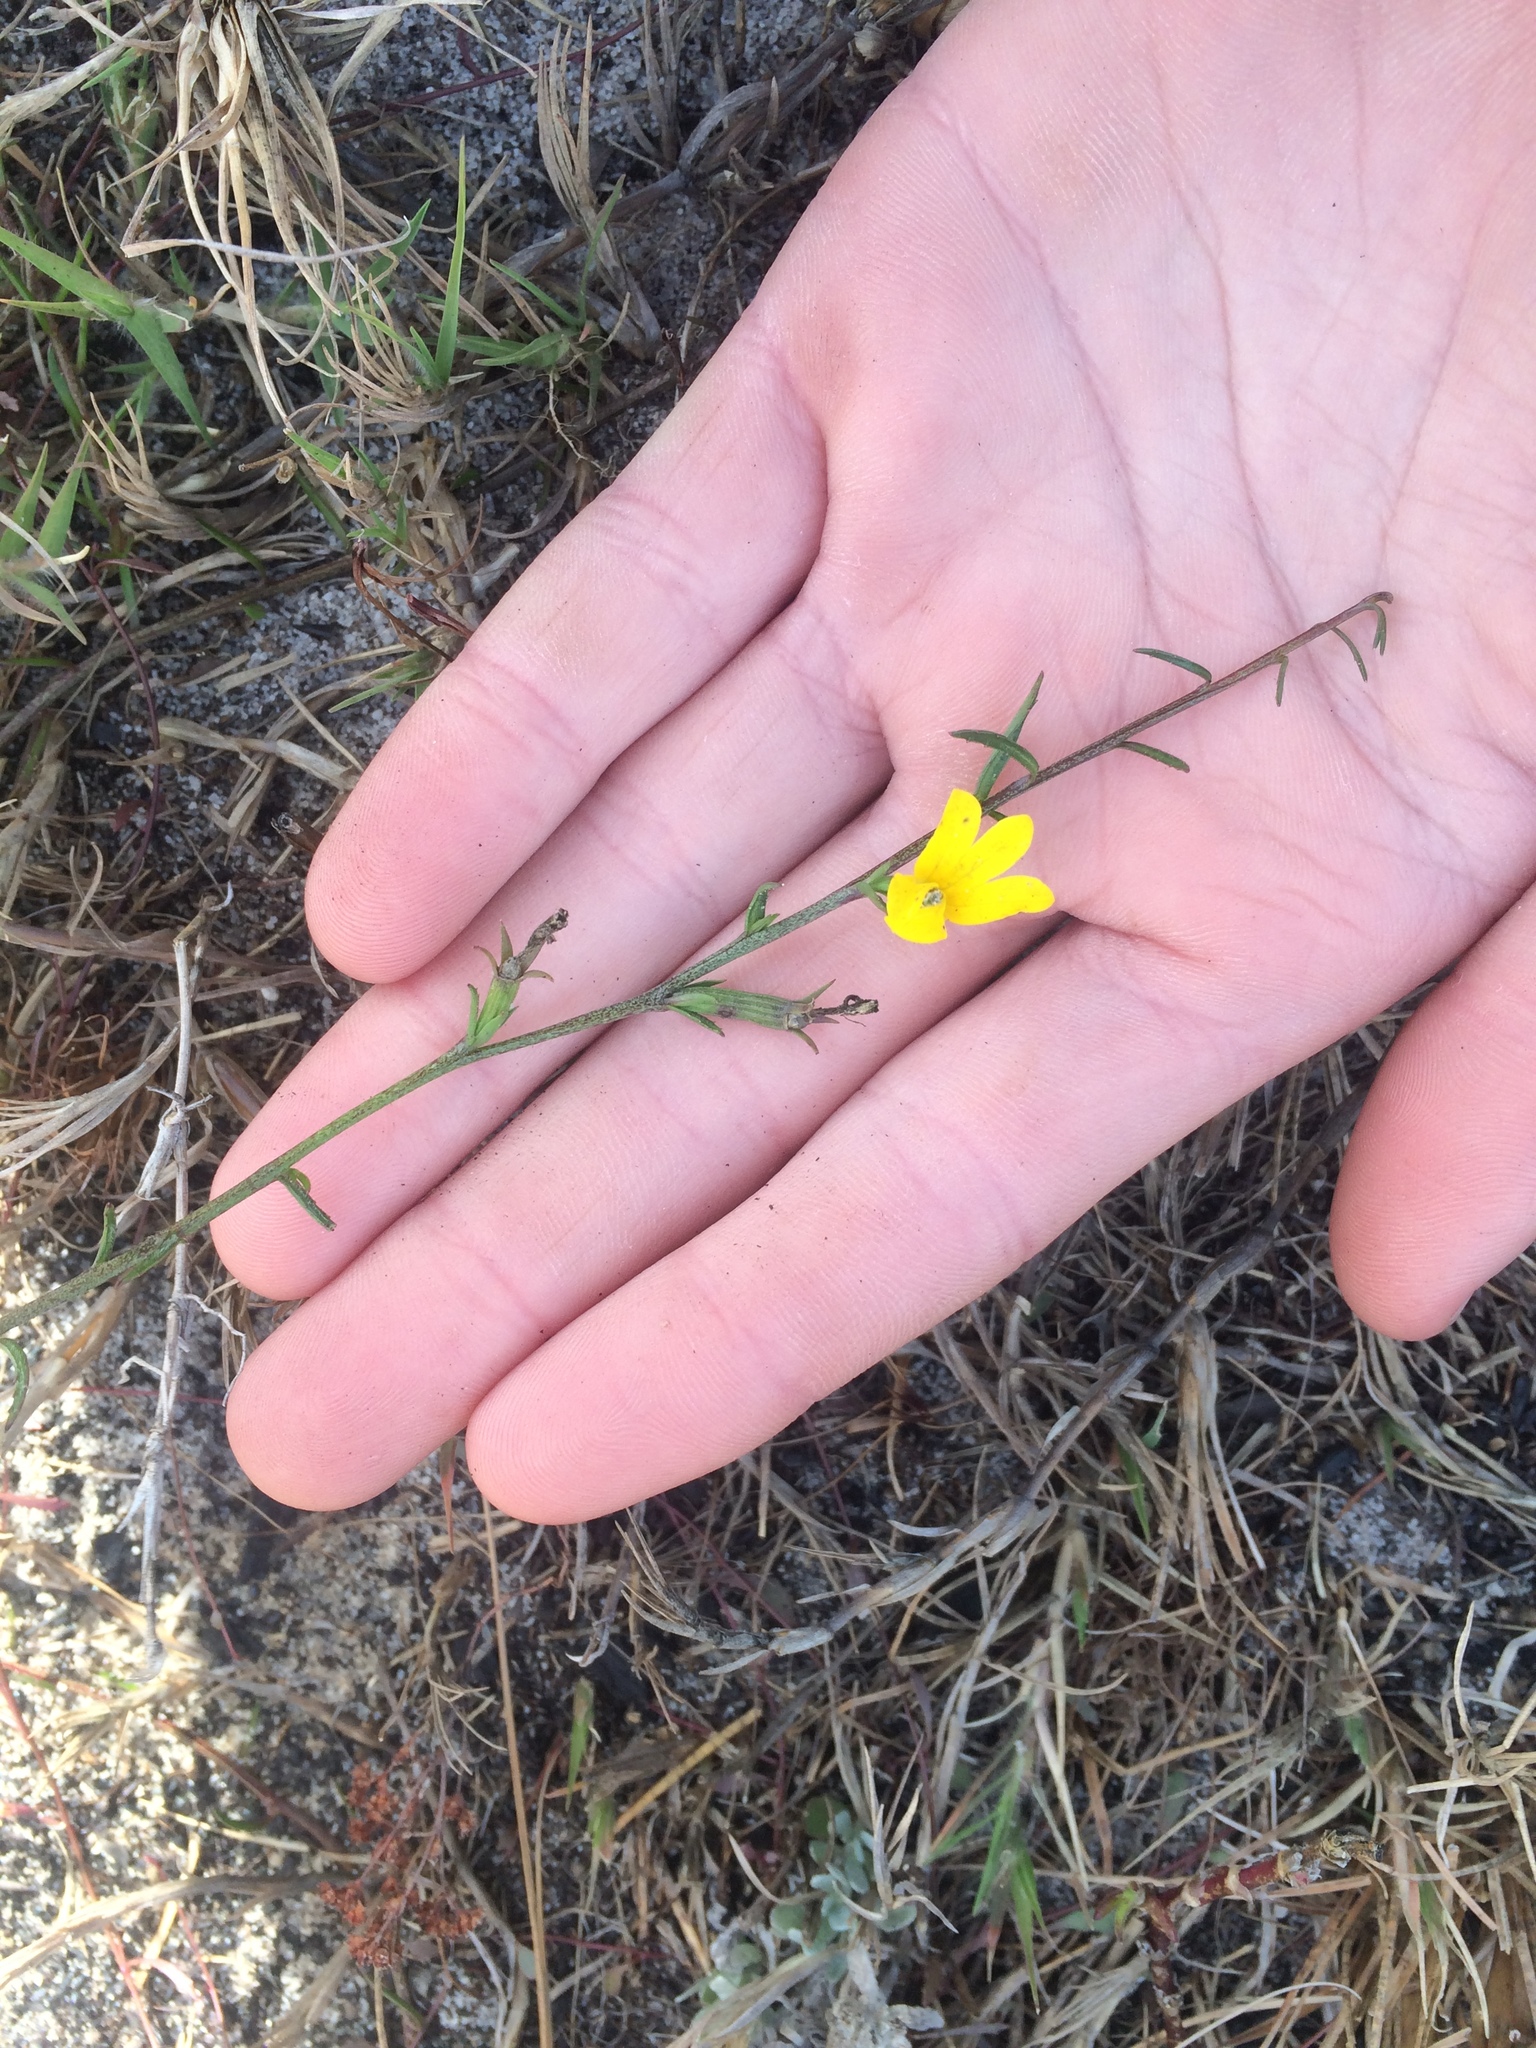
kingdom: Plantae
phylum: Tracheophyta
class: Magnoliopsida
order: Asterales
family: Campanulaceae
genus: Monopsis
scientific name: Monopsis lutea
